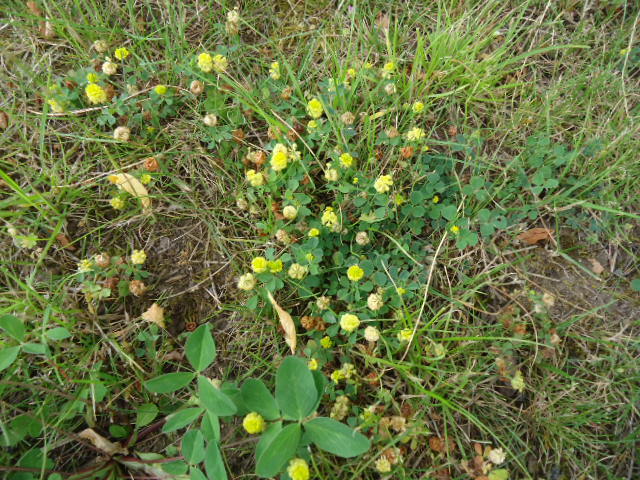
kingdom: Plantae
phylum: Tracheophyta
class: Magnoliopsida
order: Fabales
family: Fabaceae
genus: Trifolium
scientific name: Trifolium campestre
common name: Field clover
